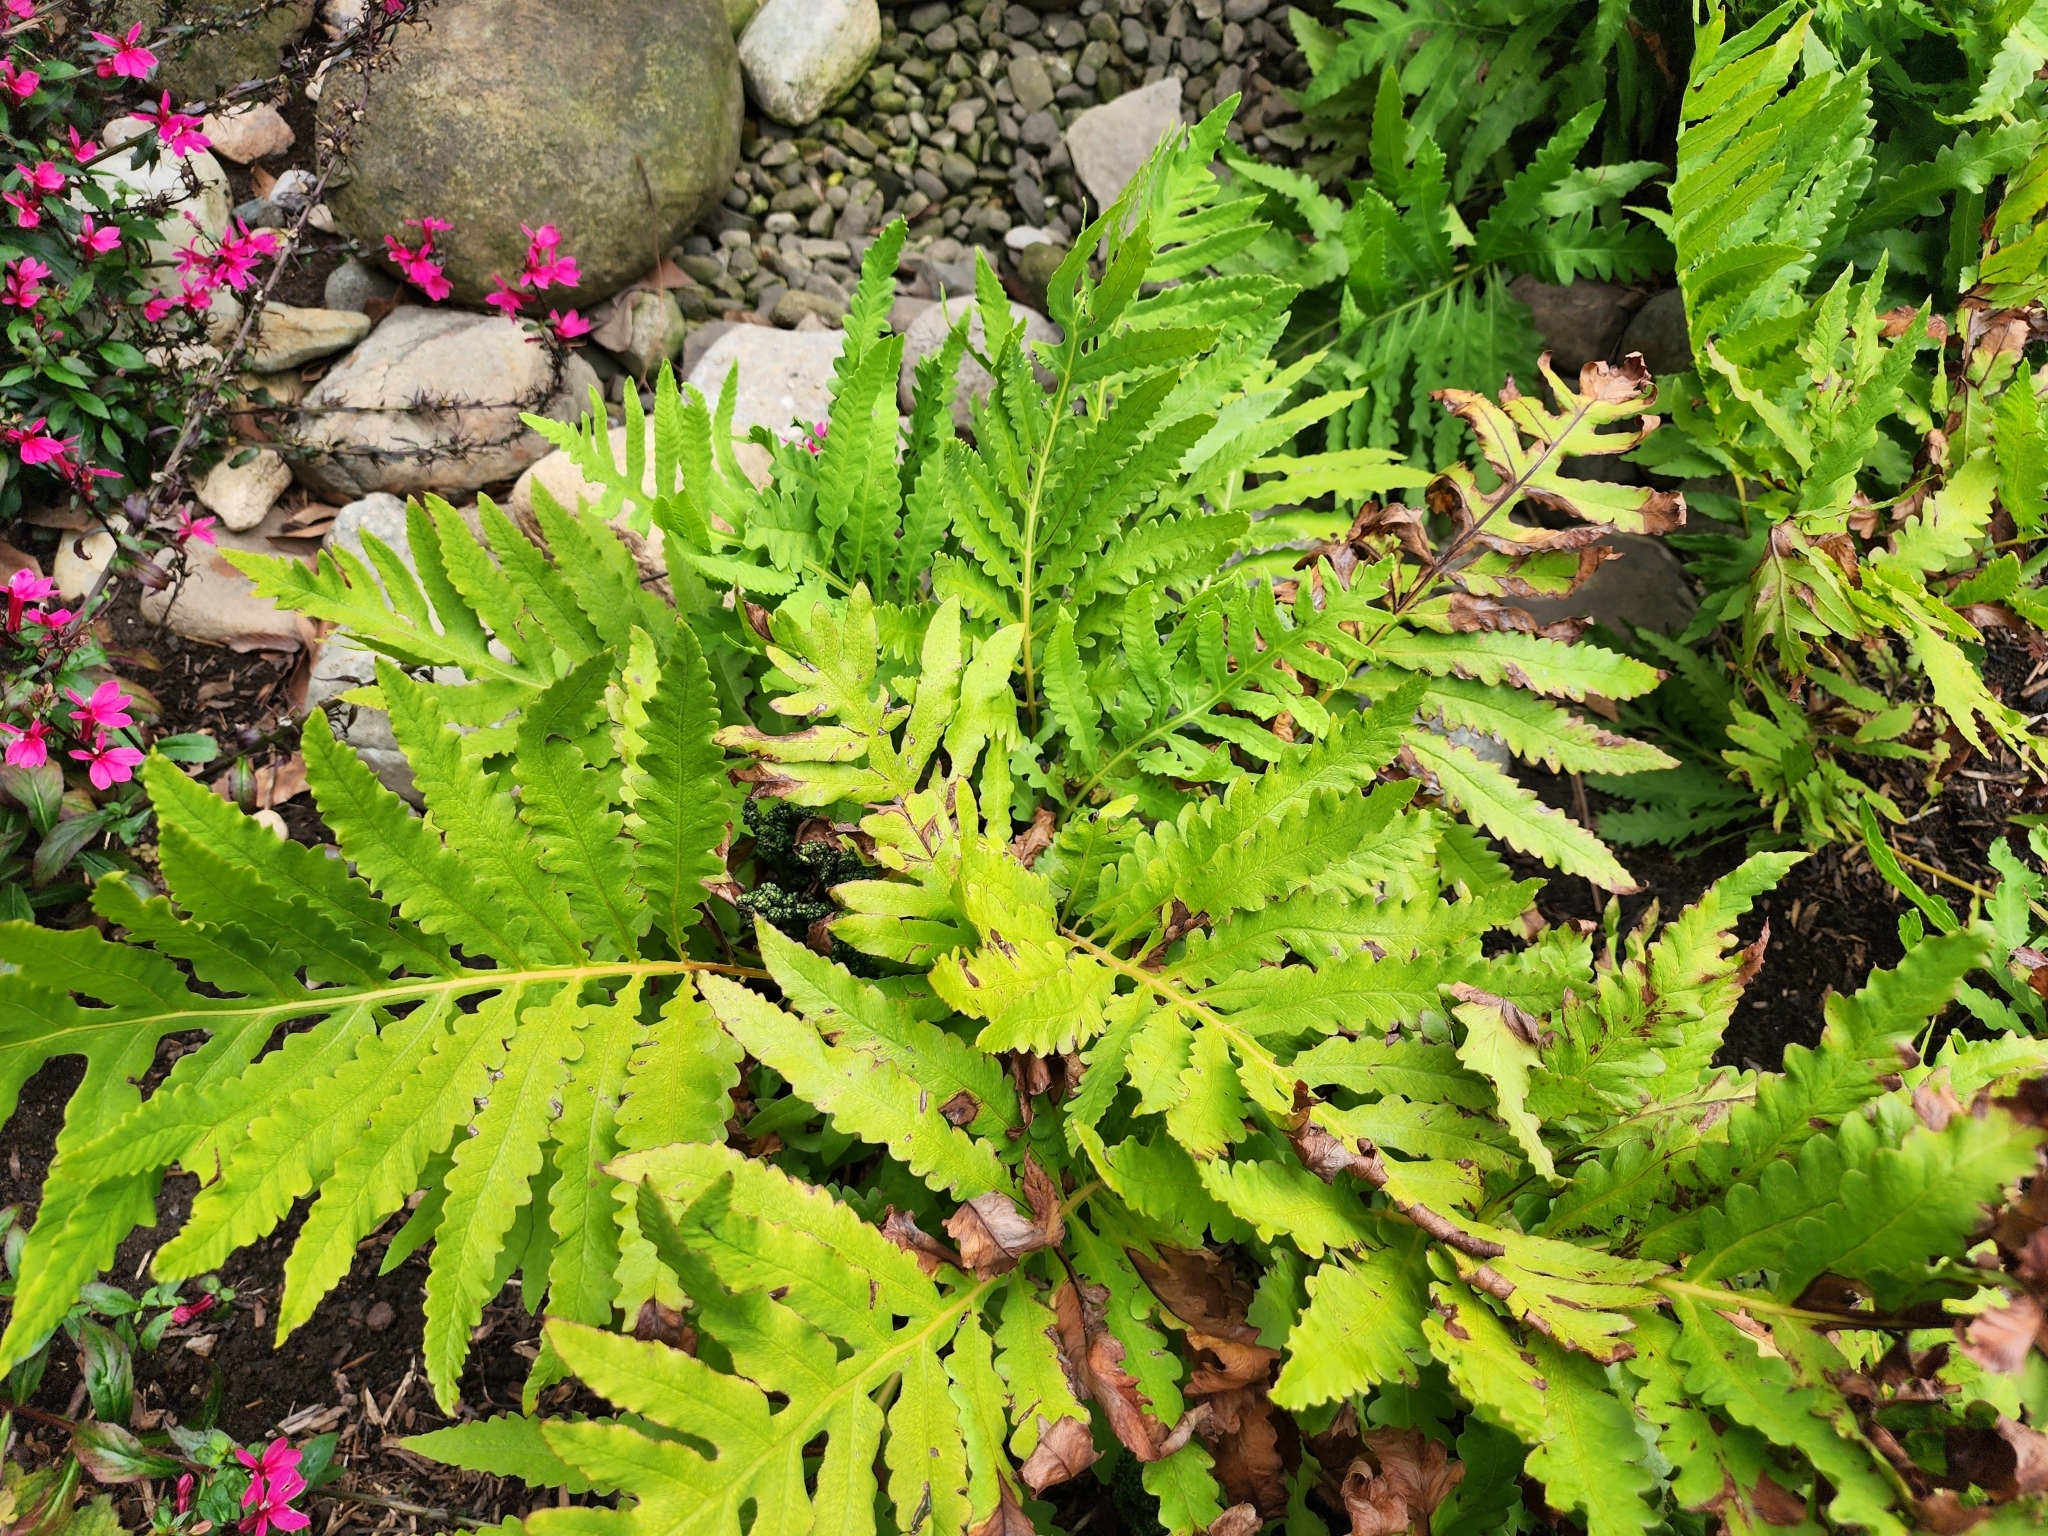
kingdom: Plantae
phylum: Tracheophyta
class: Polypodiopsida
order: Polypodiales
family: Onocleaceae
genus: Onoclea
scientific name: Onoclea sensibilis
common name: Sensitive fern
